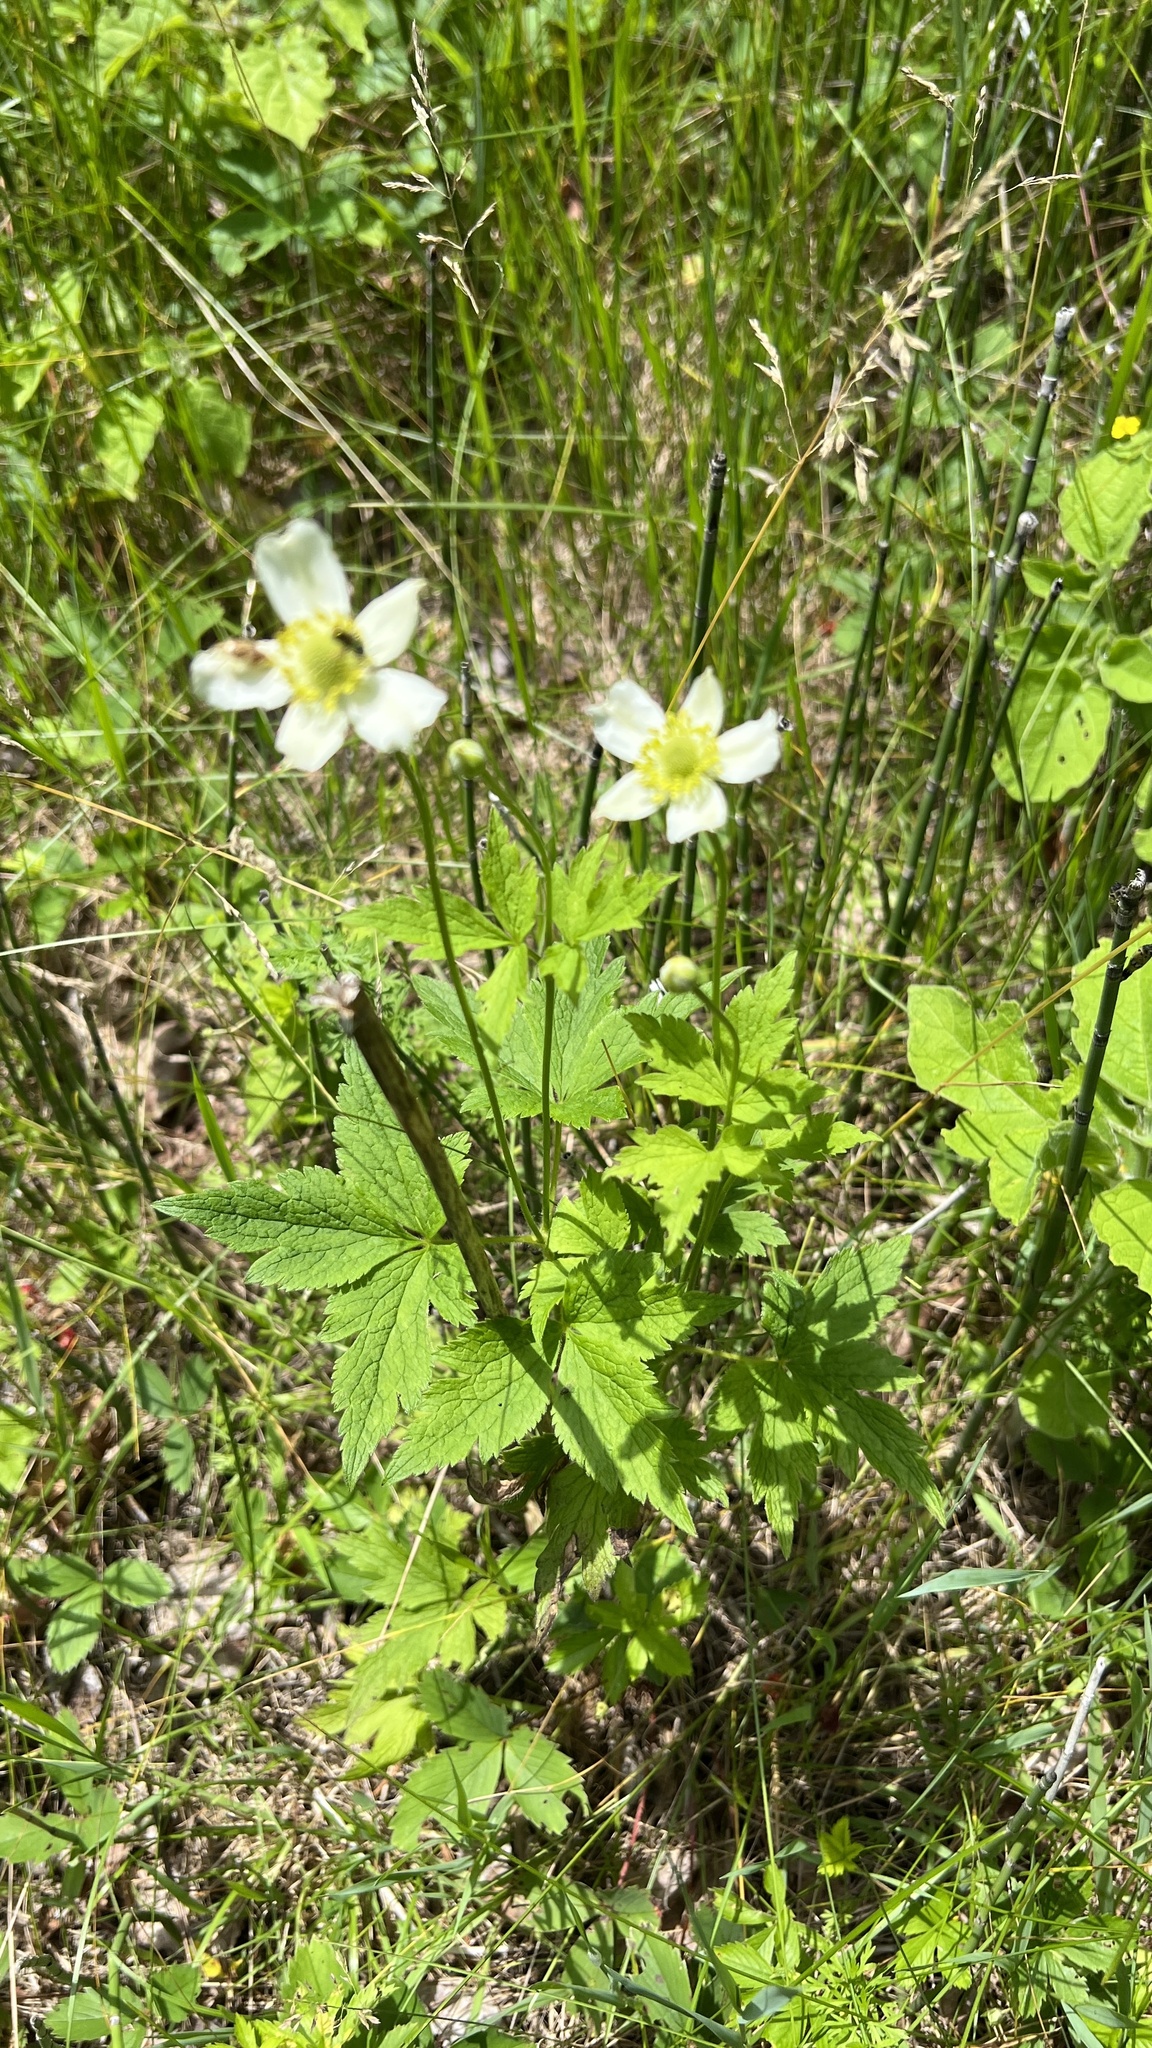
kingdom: Plantae
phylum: Tracheophyta
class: Magnoliopsida
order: Ranunculales
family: Ranunculaceae
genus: Anemone
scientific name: Anemone virginiana
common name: Tall anemone
